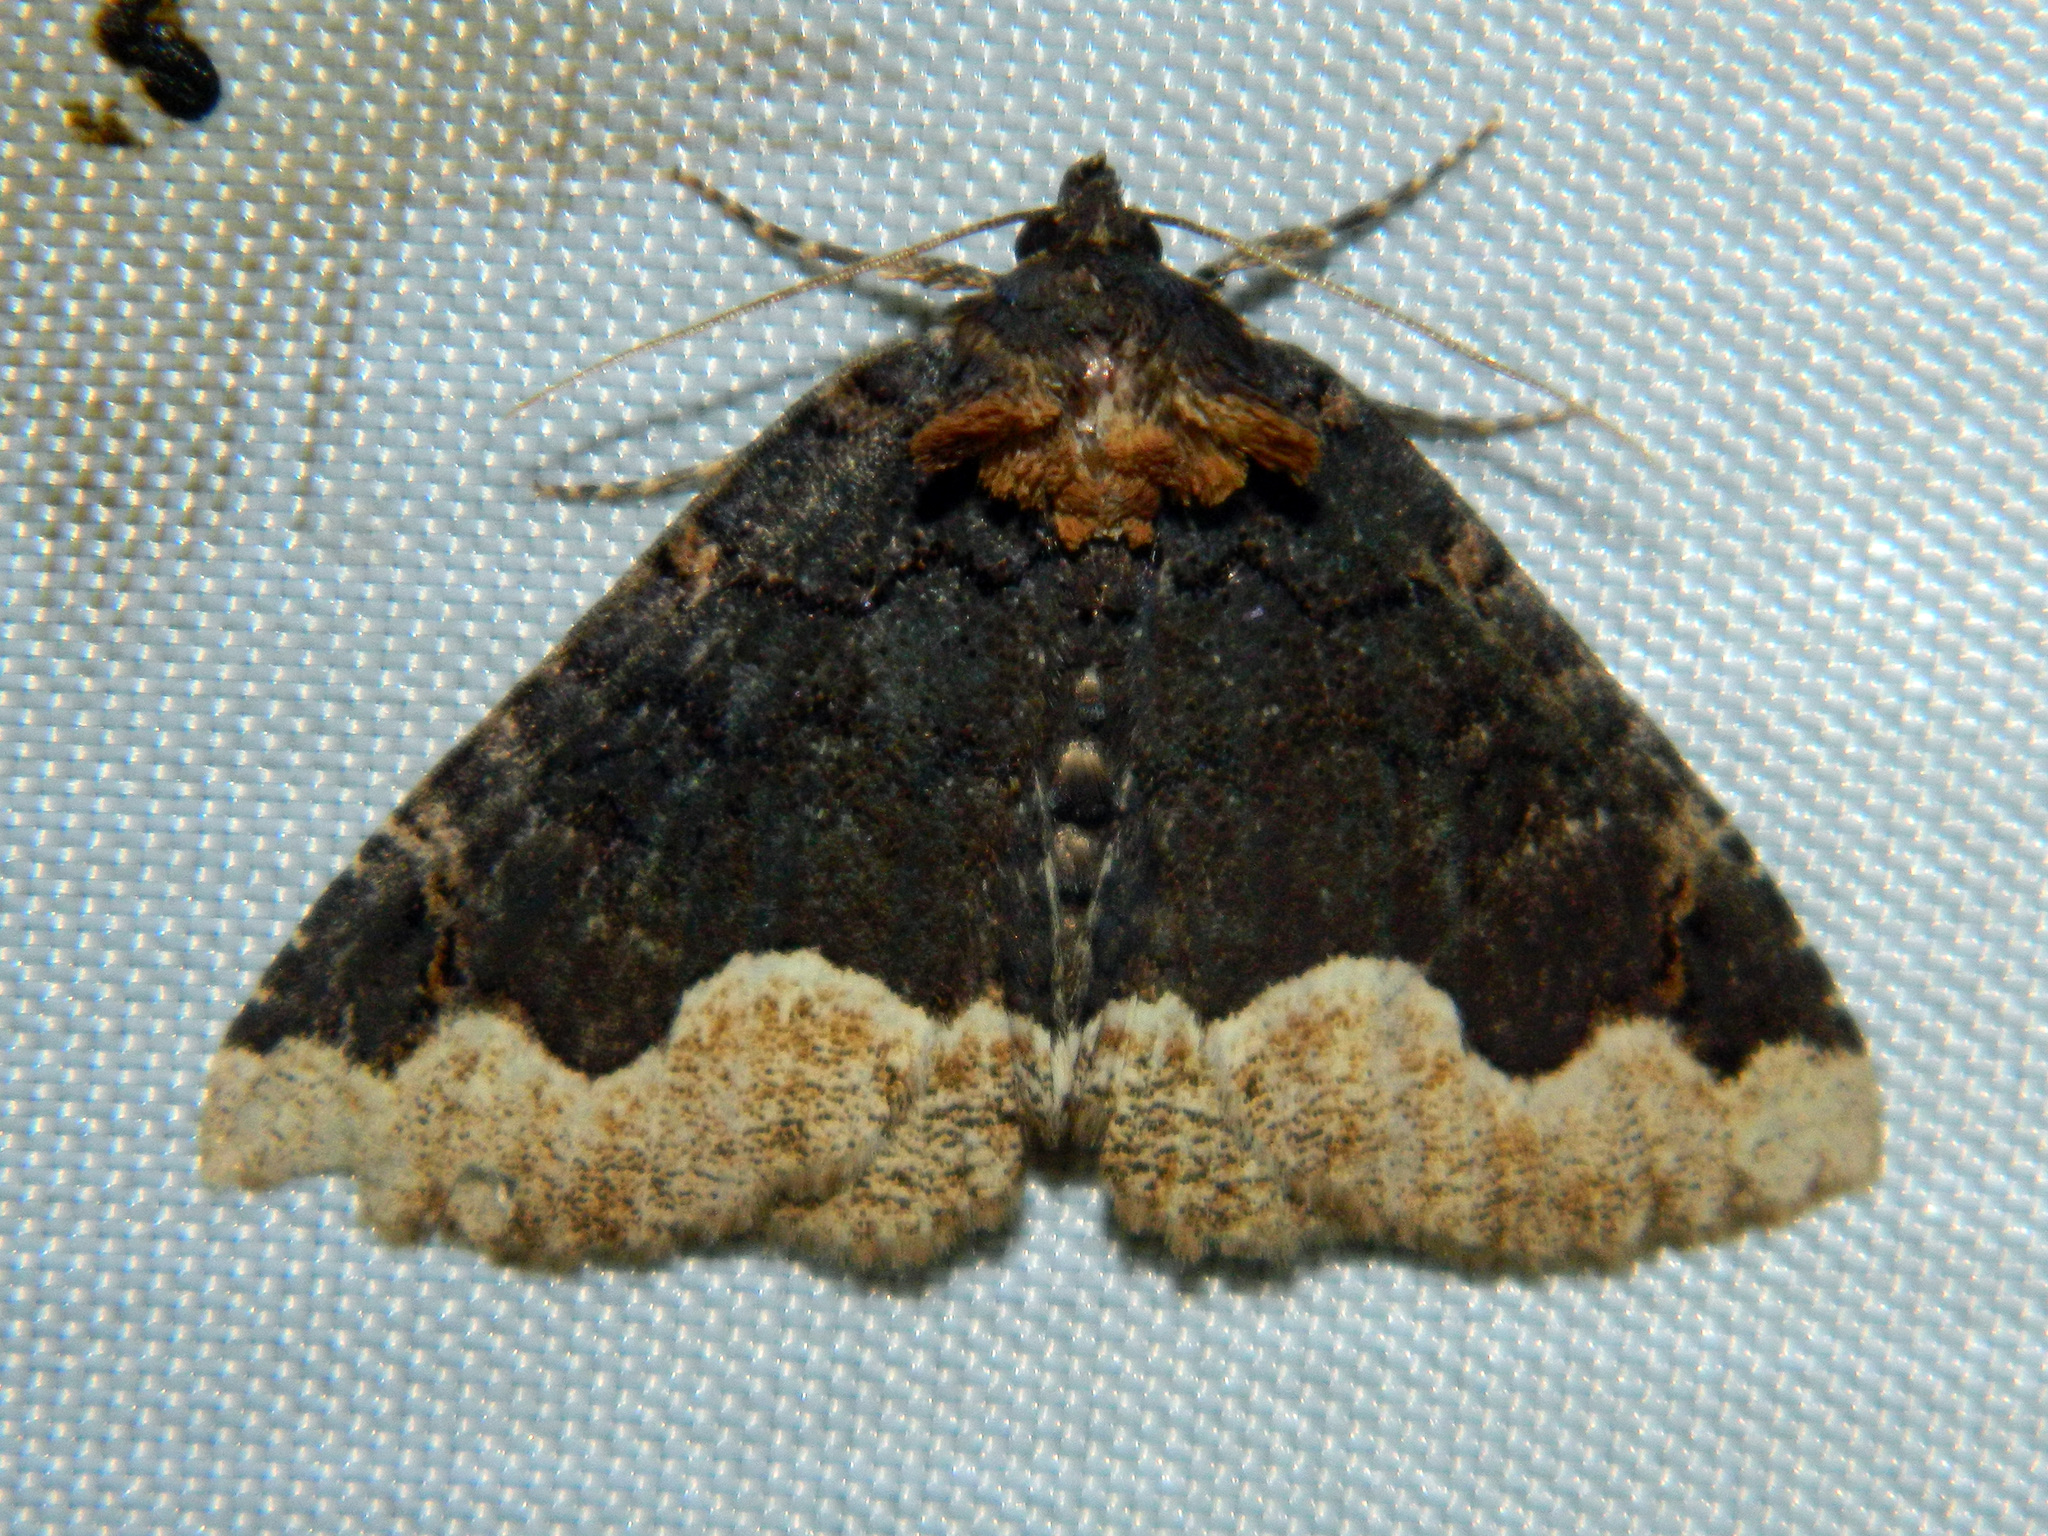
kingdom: Animalia
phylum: Arthropoda
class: Insecta
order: Lepidoptera
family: Erebidae
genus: Zale
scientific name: Zale horrida
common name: Horrid zale moth
